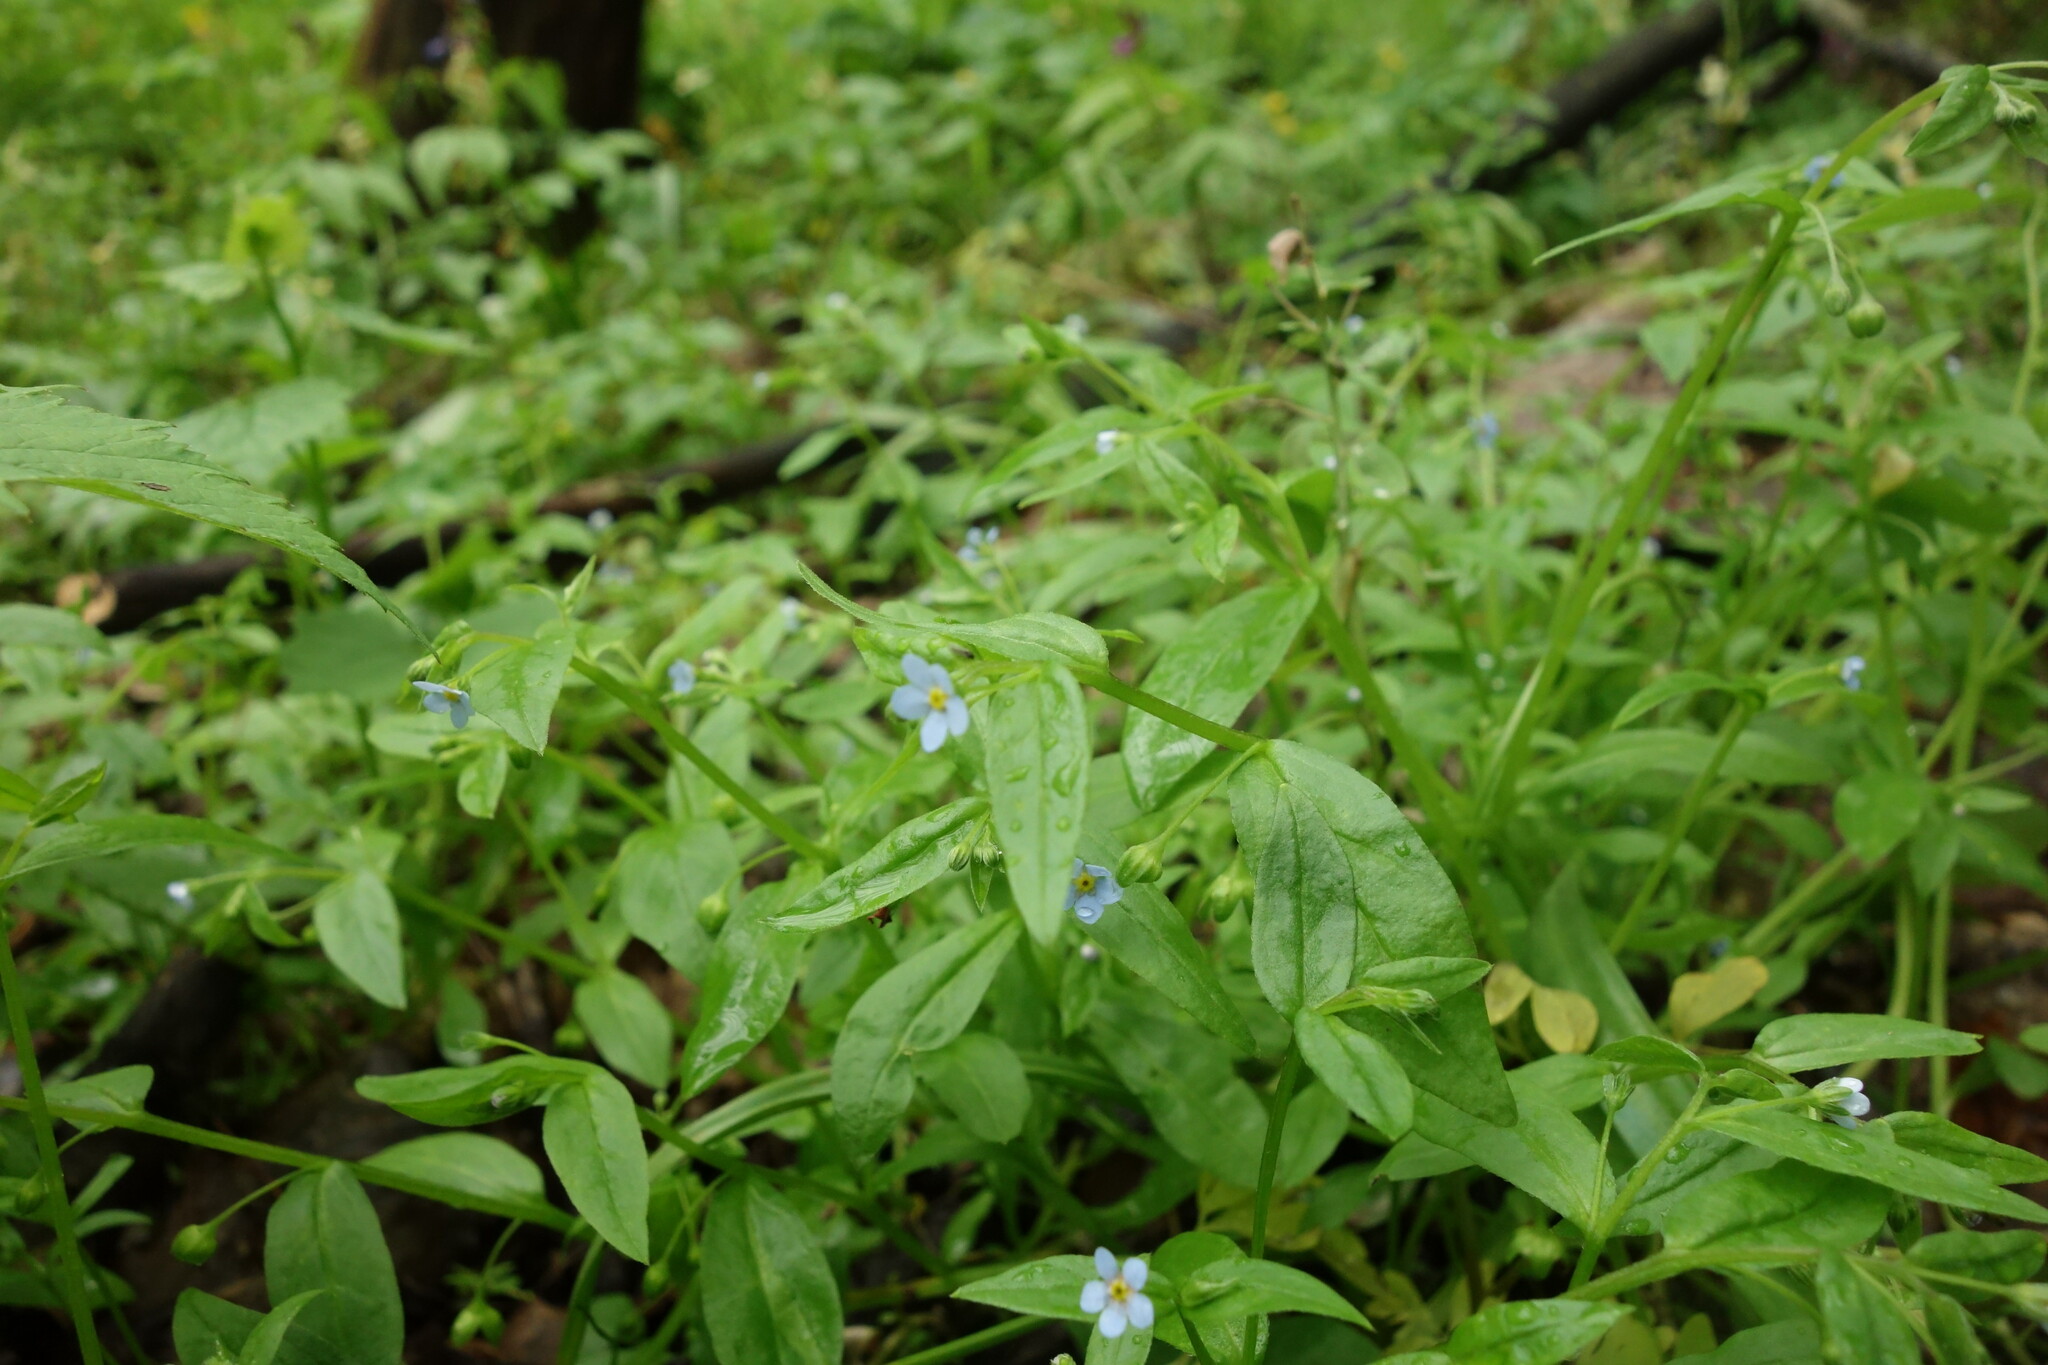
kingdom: Plantae
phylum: Tracheophyta
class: Magnoliopsida
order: Boraginales
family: Boraginaceae
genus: Memoremea
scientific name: Memoremea scorpioides
